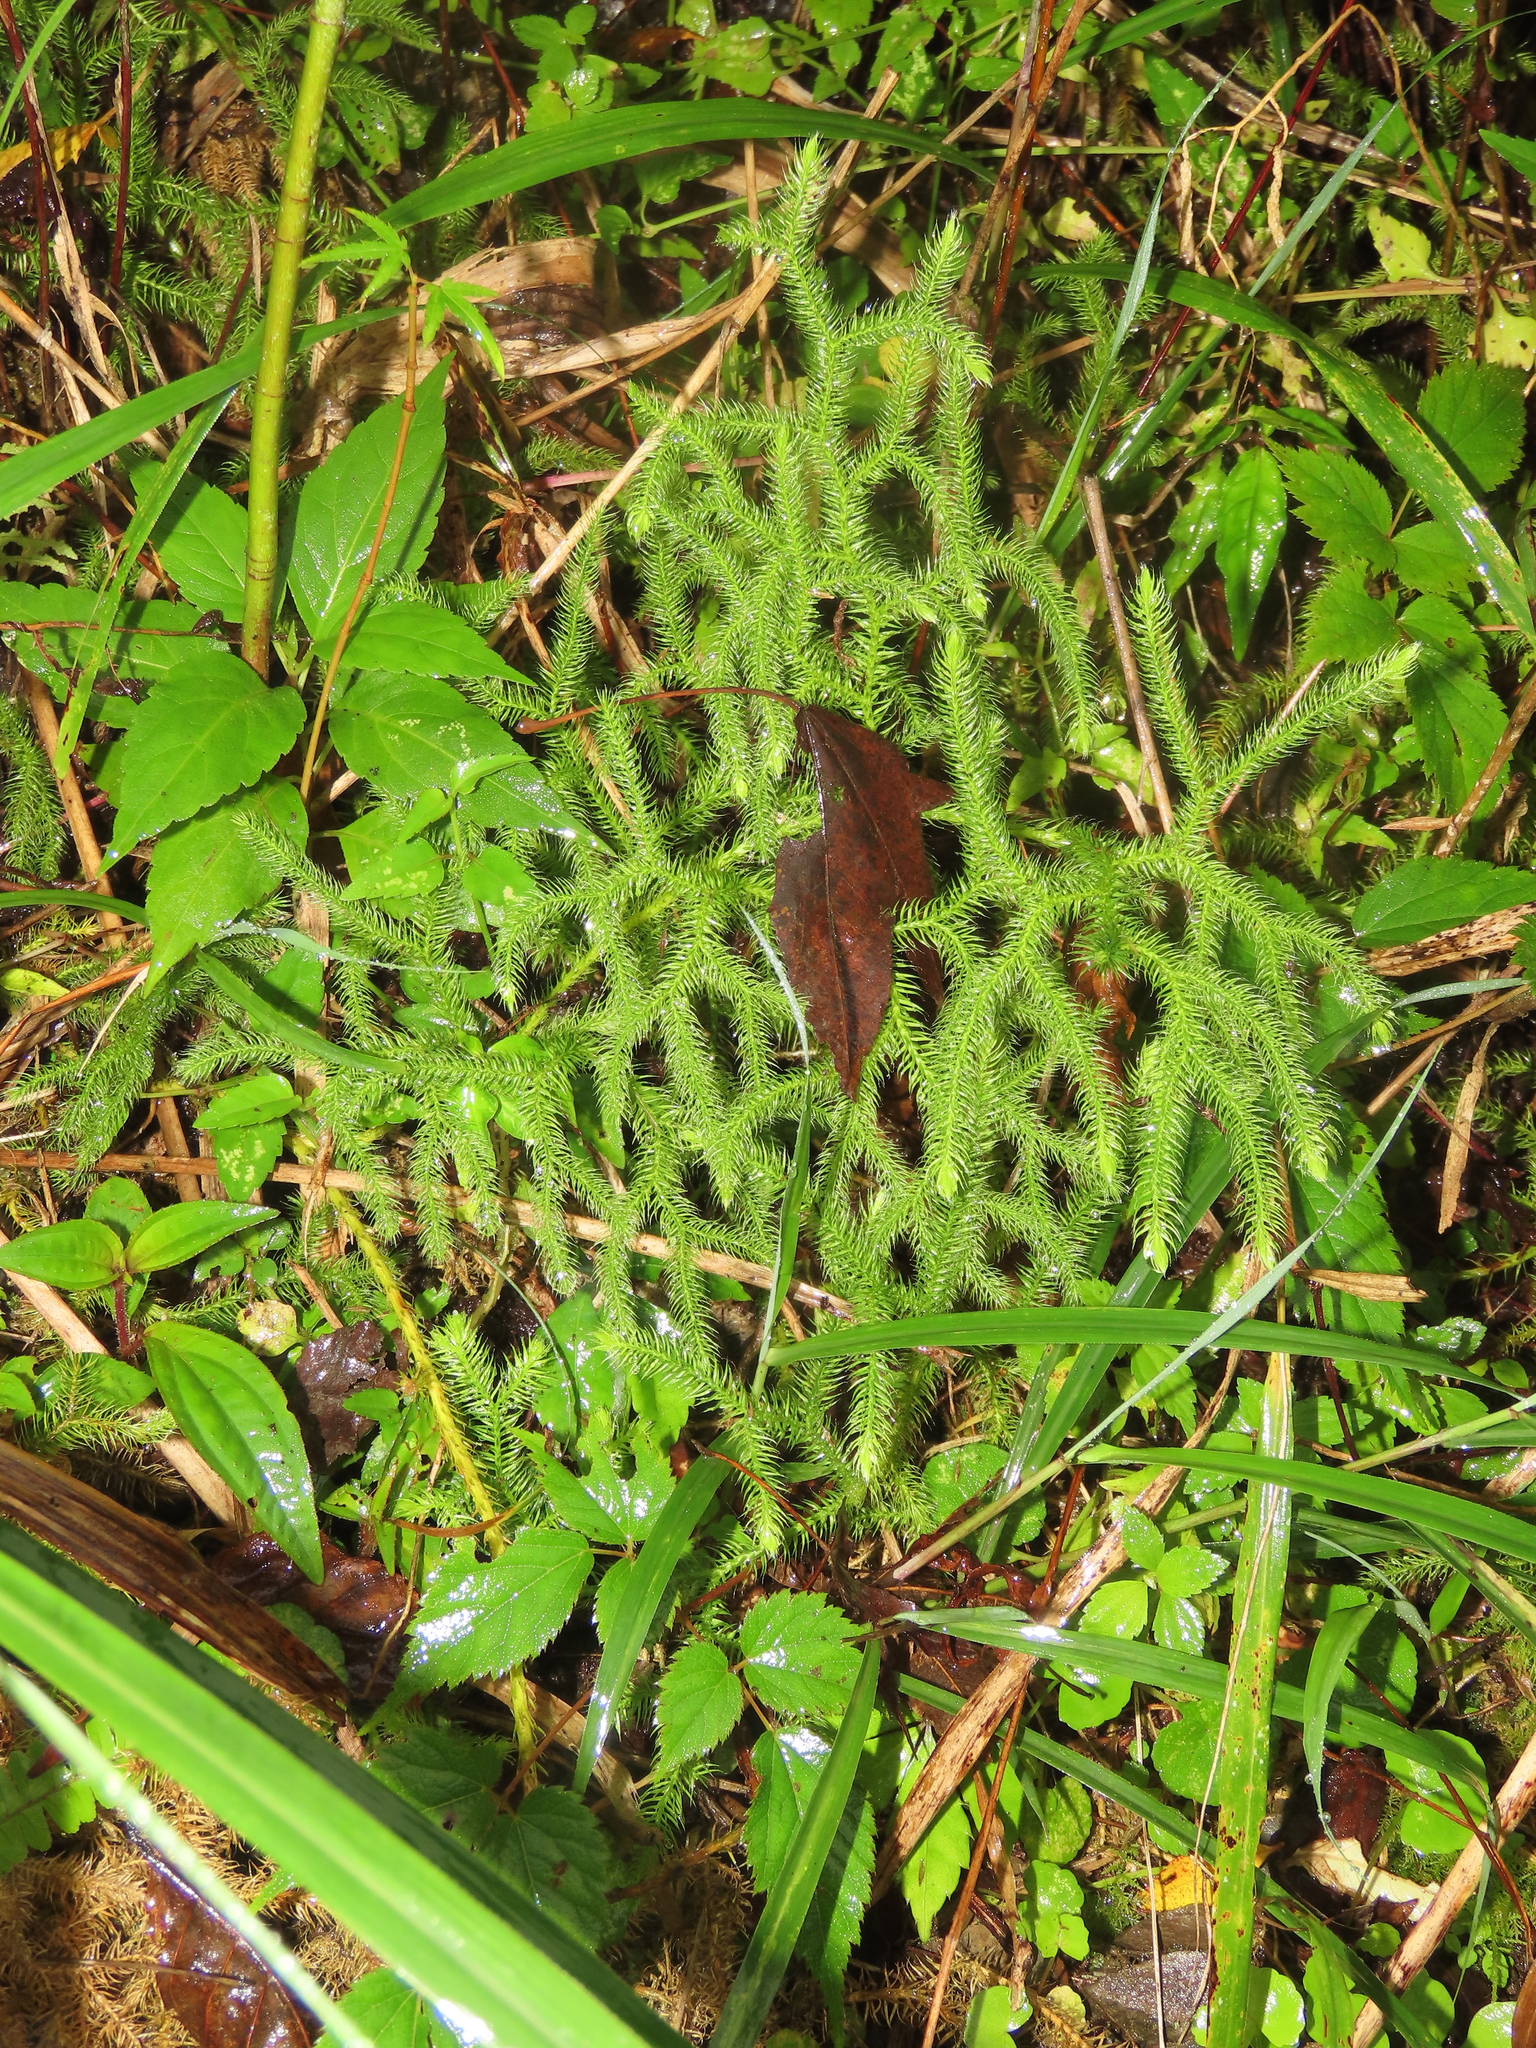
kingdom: Plantae
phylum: Tracheophyta
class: Lycopodiopsida
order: Lycopodiales
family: Lycopodiaceae
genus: Palhinhaea
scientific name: Palhinhaea cernua
